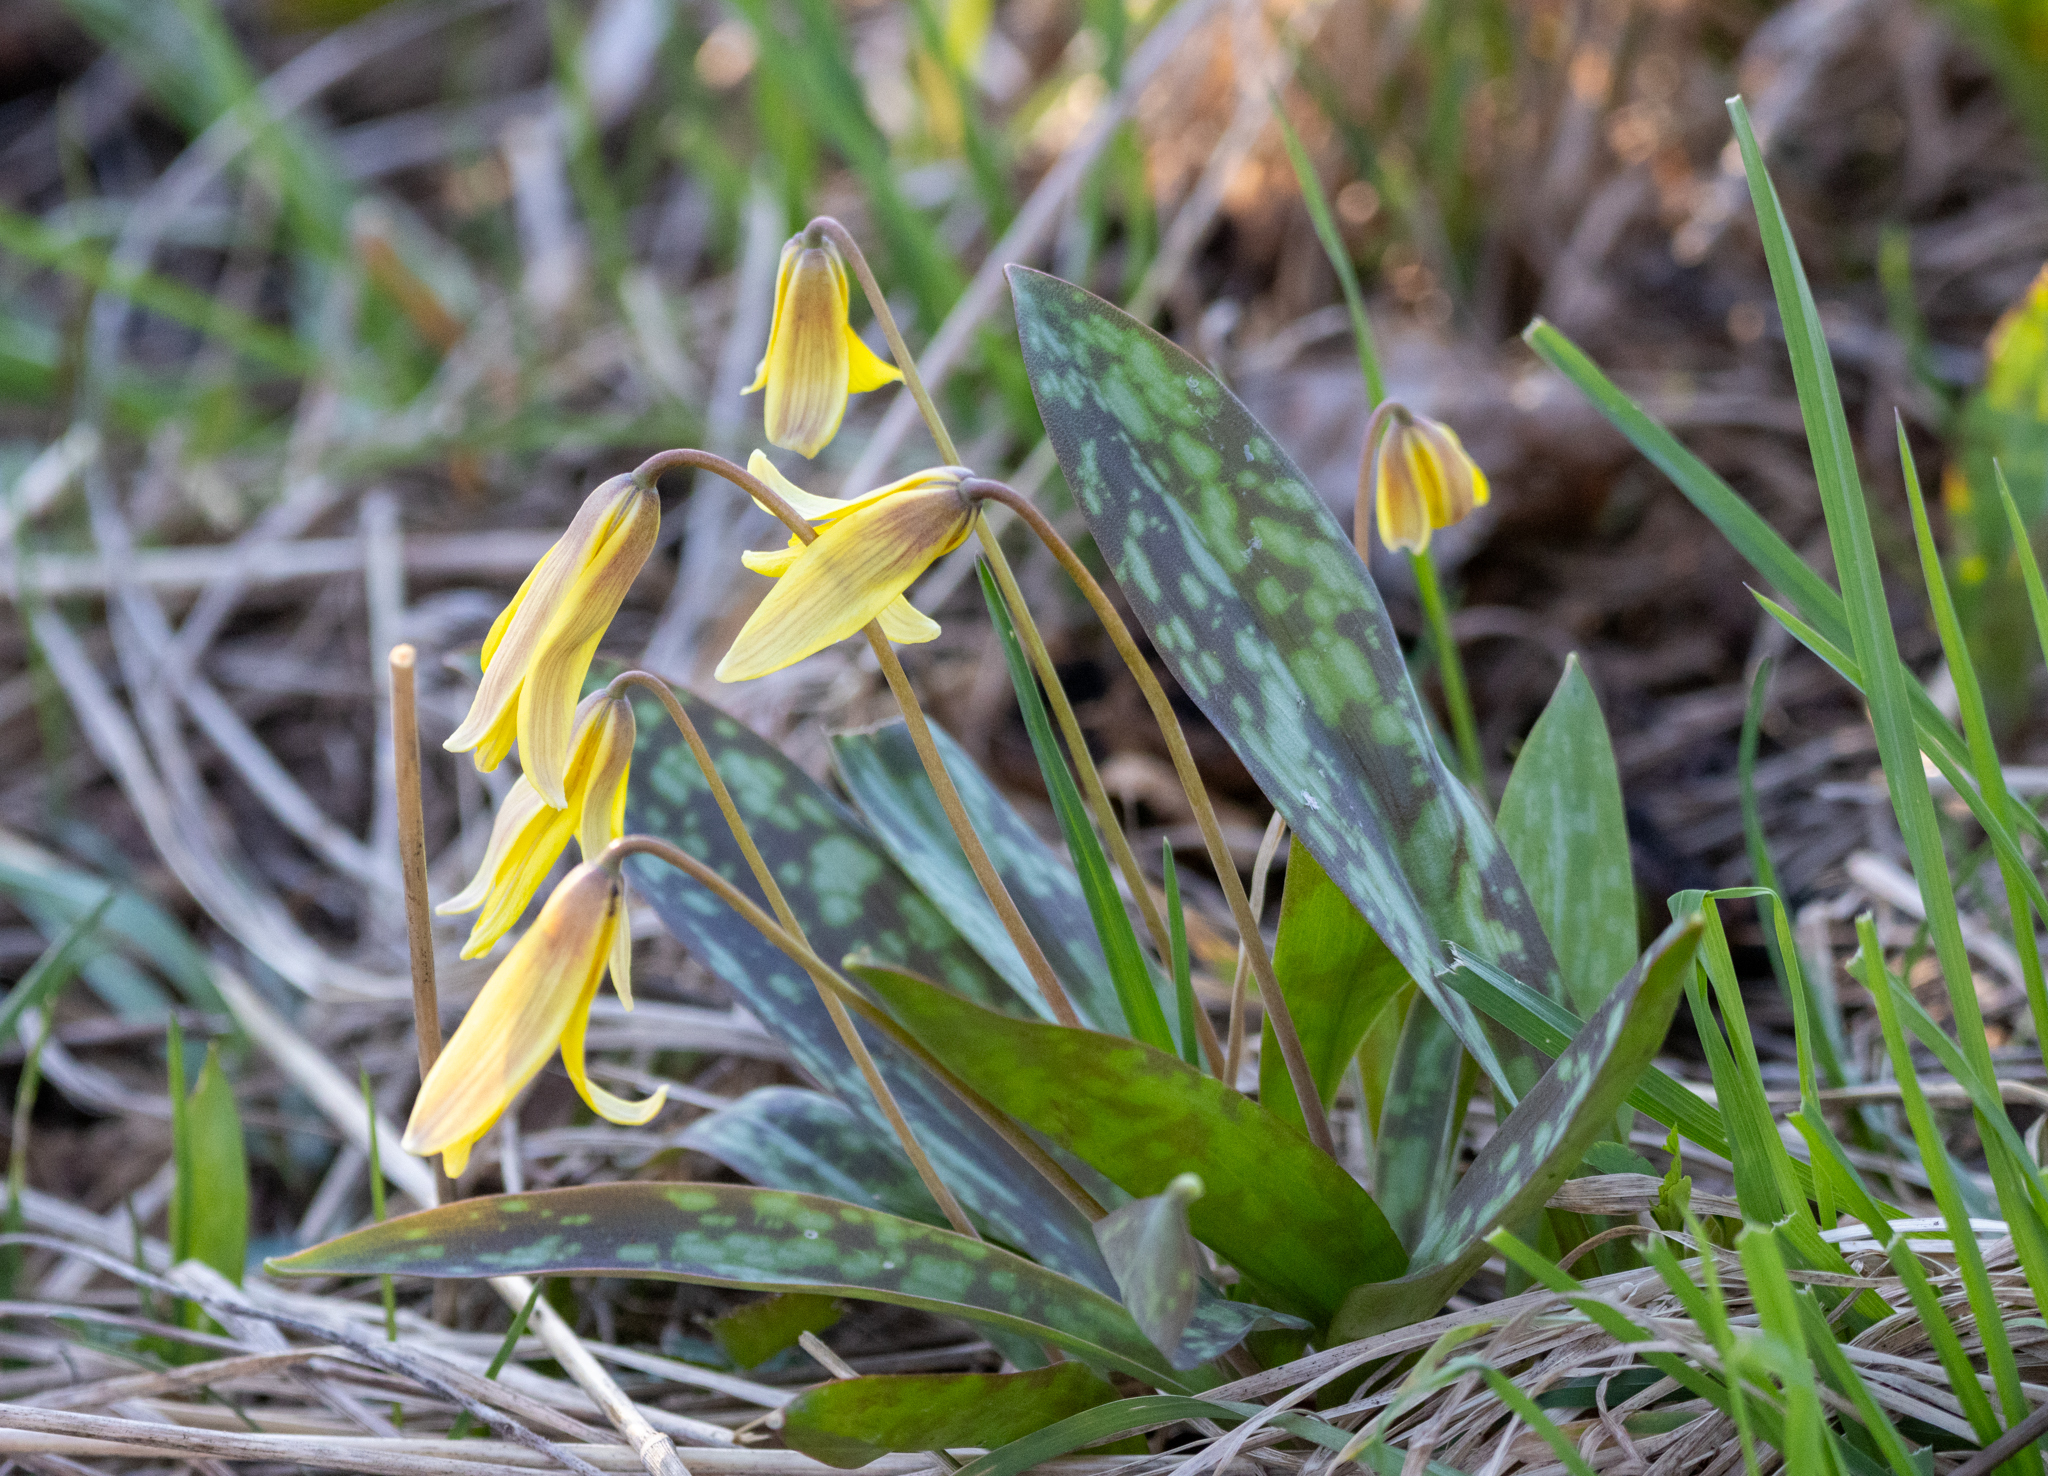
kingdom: Plantae
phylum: Tracheophyta
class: Liliopsida
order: Liliales
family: Liliaceae
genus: Erythronium
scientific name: Erythronium americanum
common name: Yellow adder's-tongue
